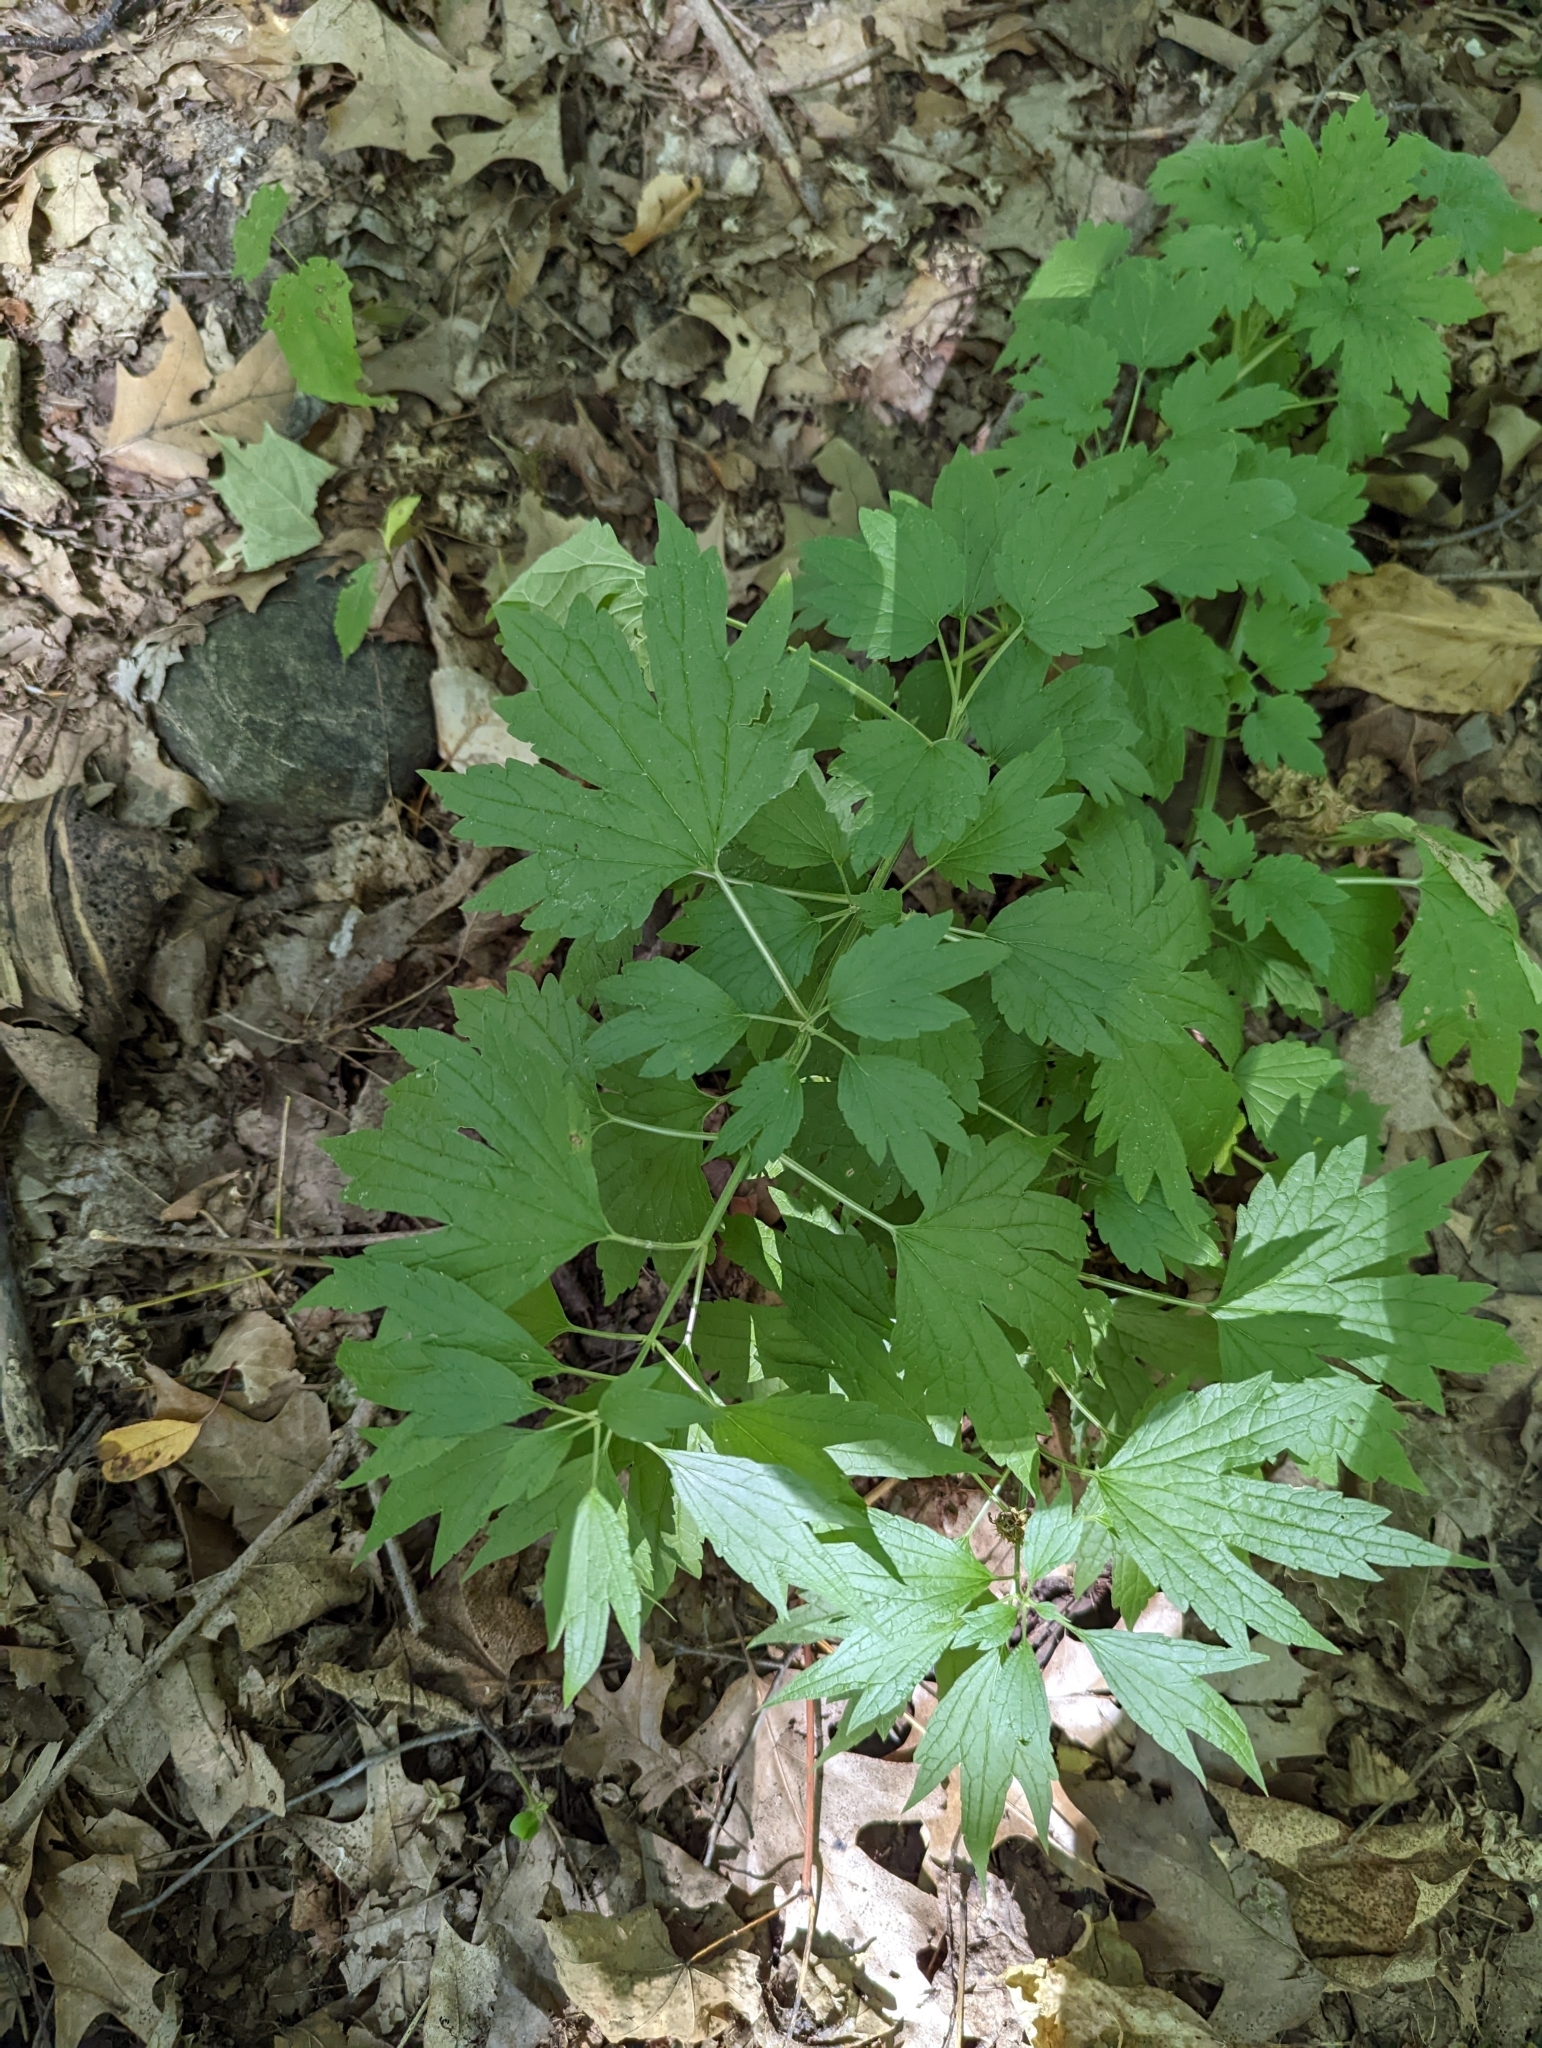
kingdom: Plantae
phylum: Tracheophyta
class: Magnoliopsida
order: Lamiales
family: Lamiaceae
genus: Leonurus
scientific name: Leonurus cardiaca
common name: Motherwort
